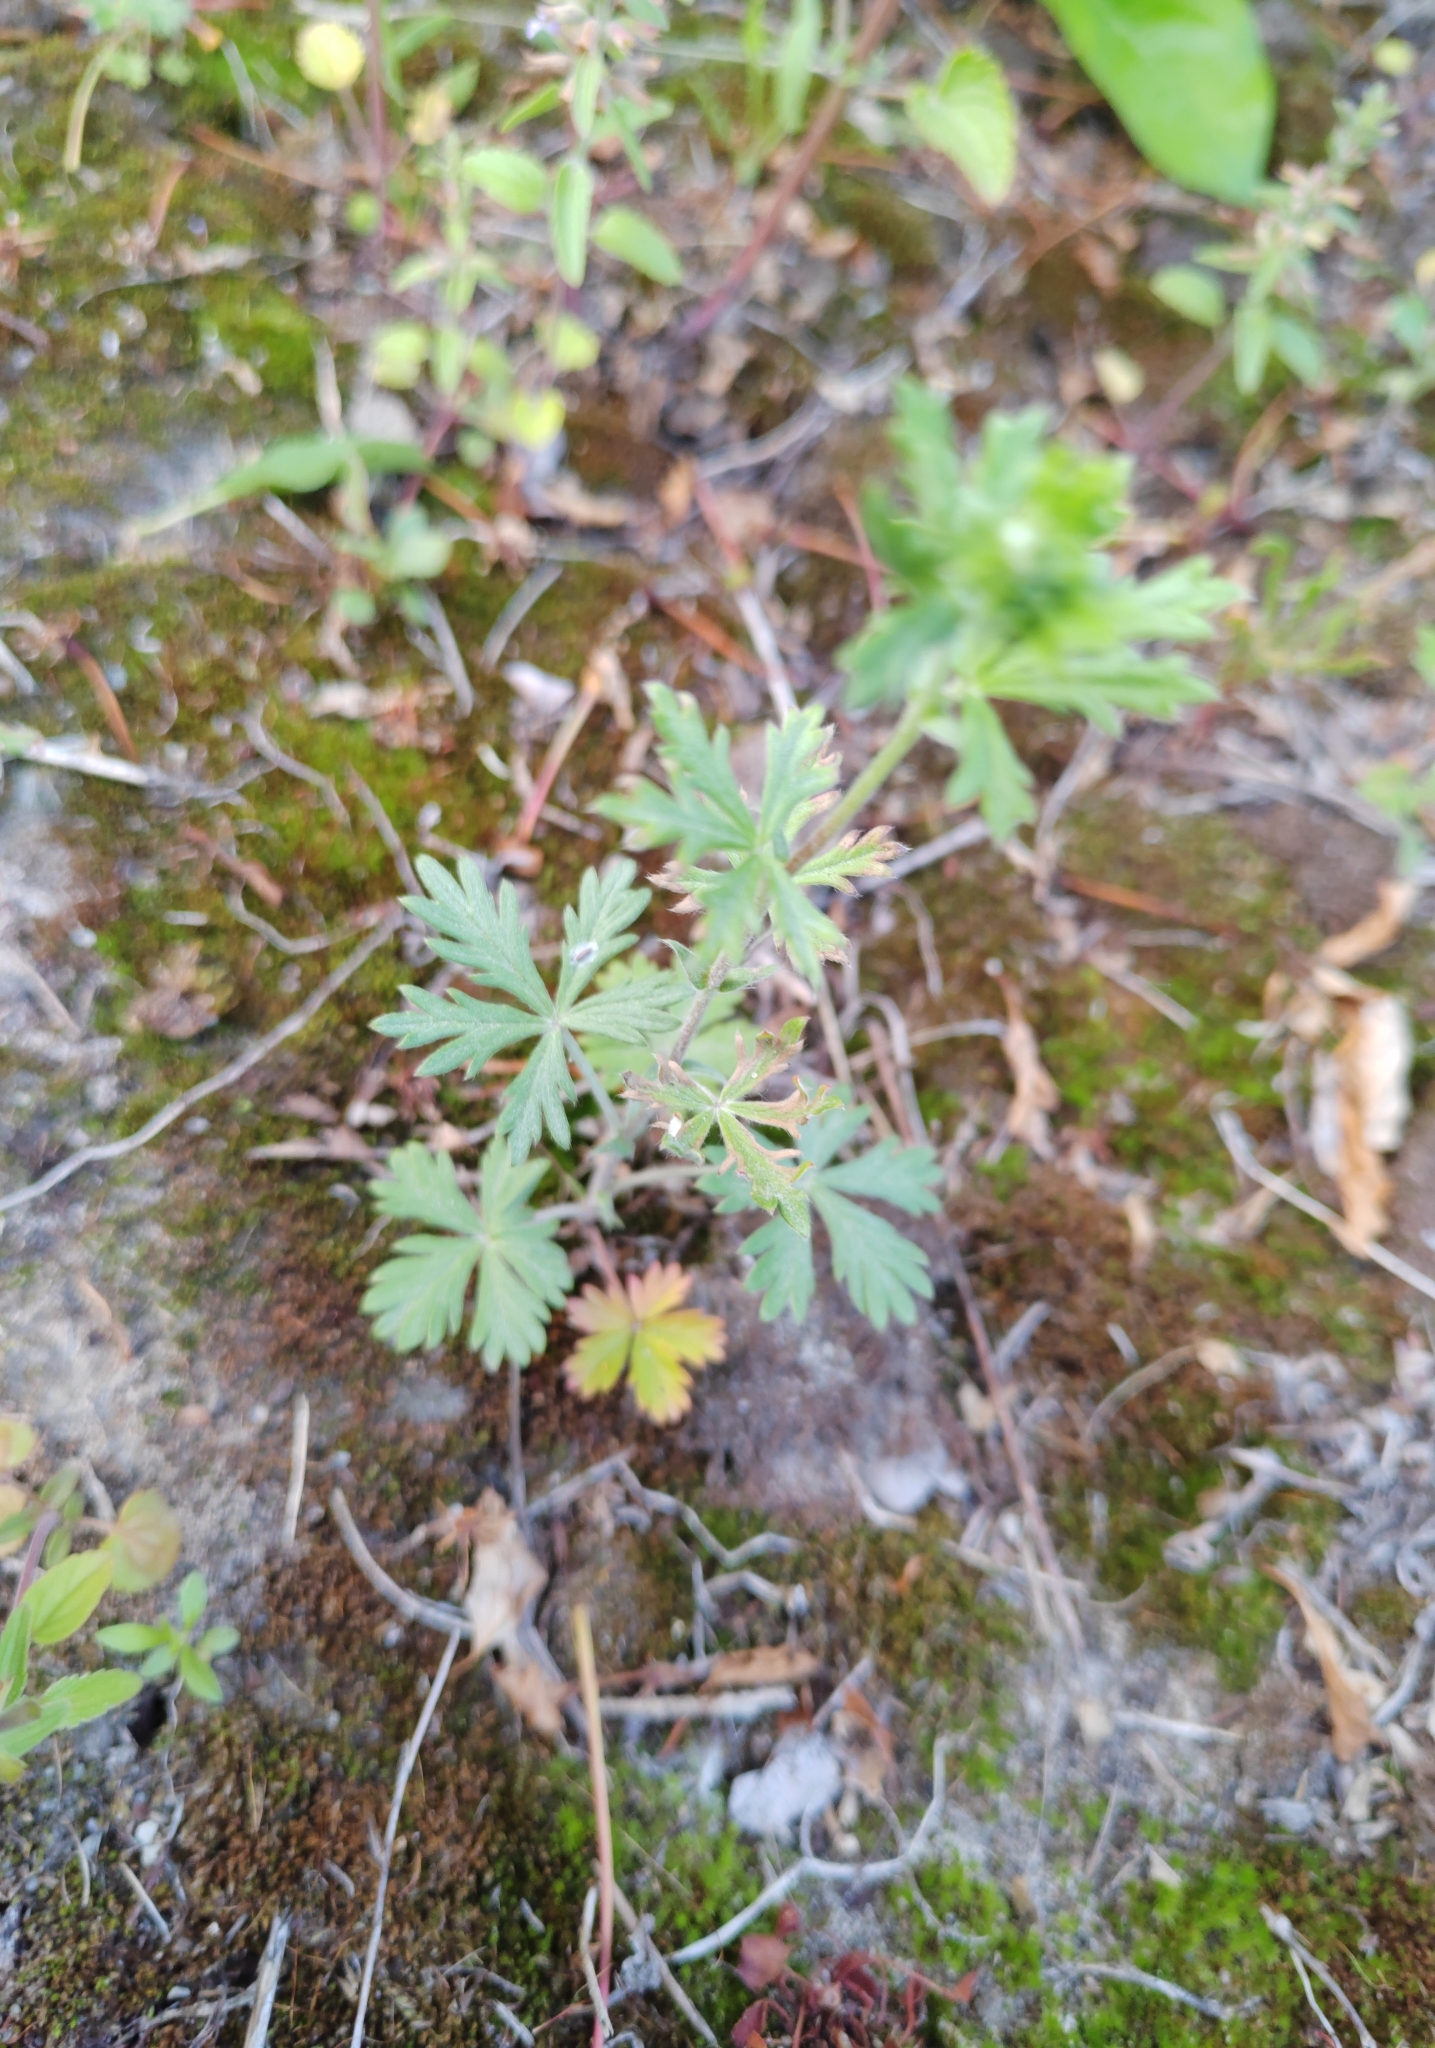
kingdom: Plantae
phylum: Tracheophyta
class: Magnoliopsida
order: Rosales
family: Rosaceae
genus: Potentilla
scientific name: Potentilla argentea
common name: Hoary cinquefoil
